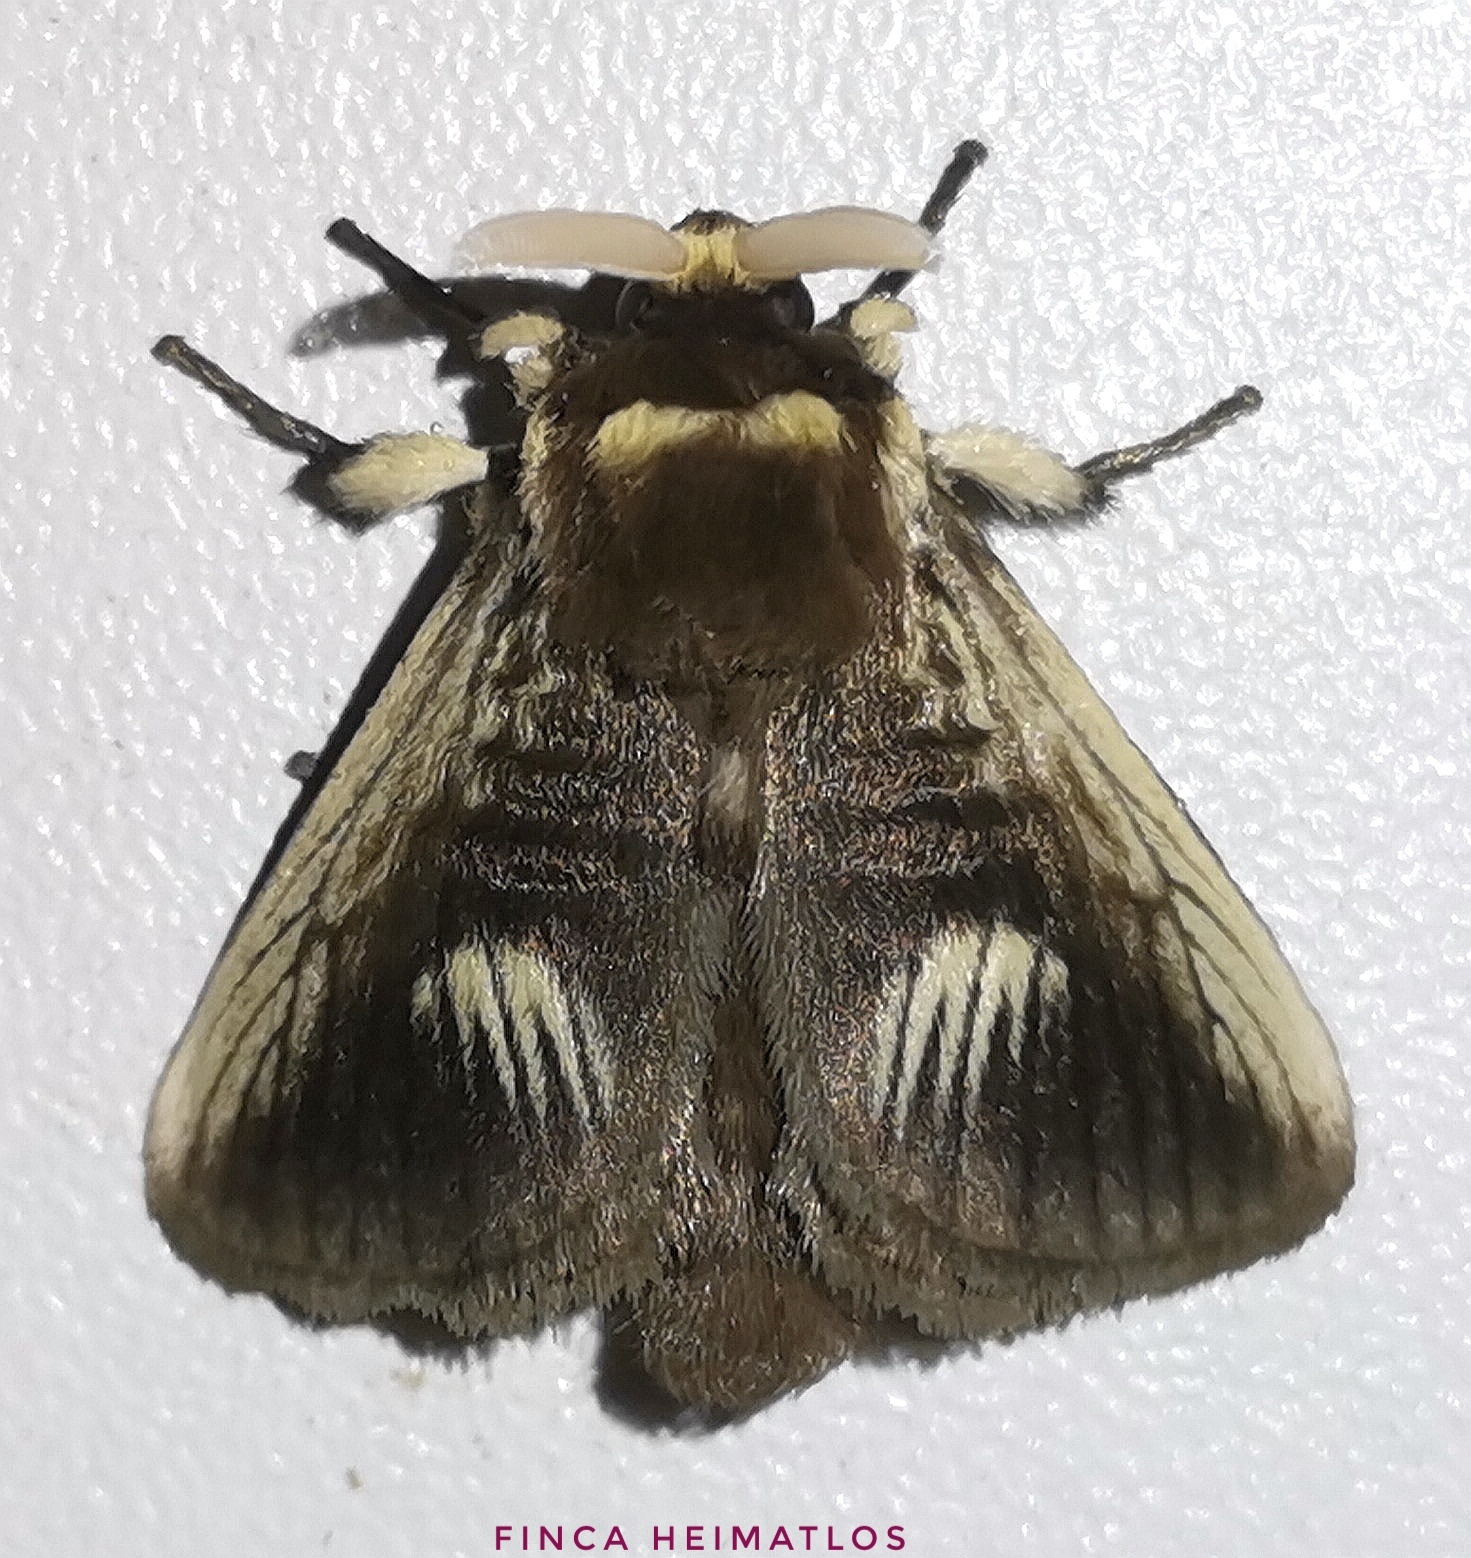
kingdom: Animalia
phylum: Arthropoda
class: Insecta
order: Lepidoptera
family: Megalopygidae
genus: Podalia
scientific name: Podalia intermaculata
